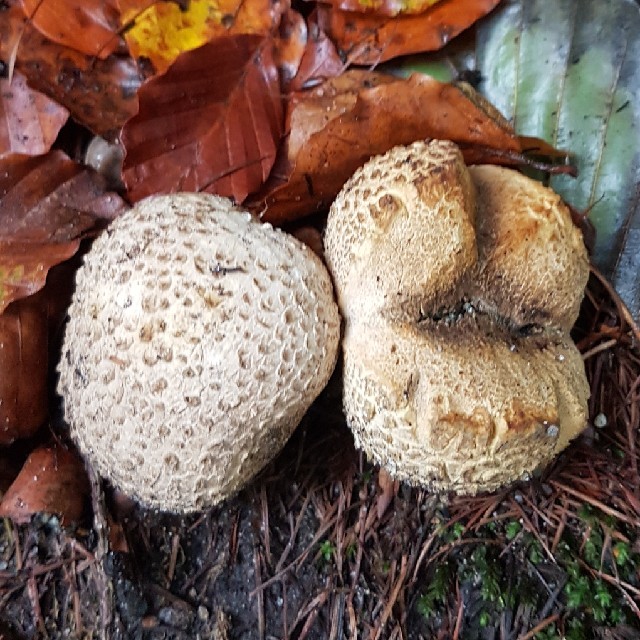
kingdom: Fungi
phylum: Basidiomycota
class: Agaricomycetes
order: Boletales
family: Sclerodermataceae
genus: Scleroderma
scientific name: Scleroderma citrinum
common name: Common earthball
